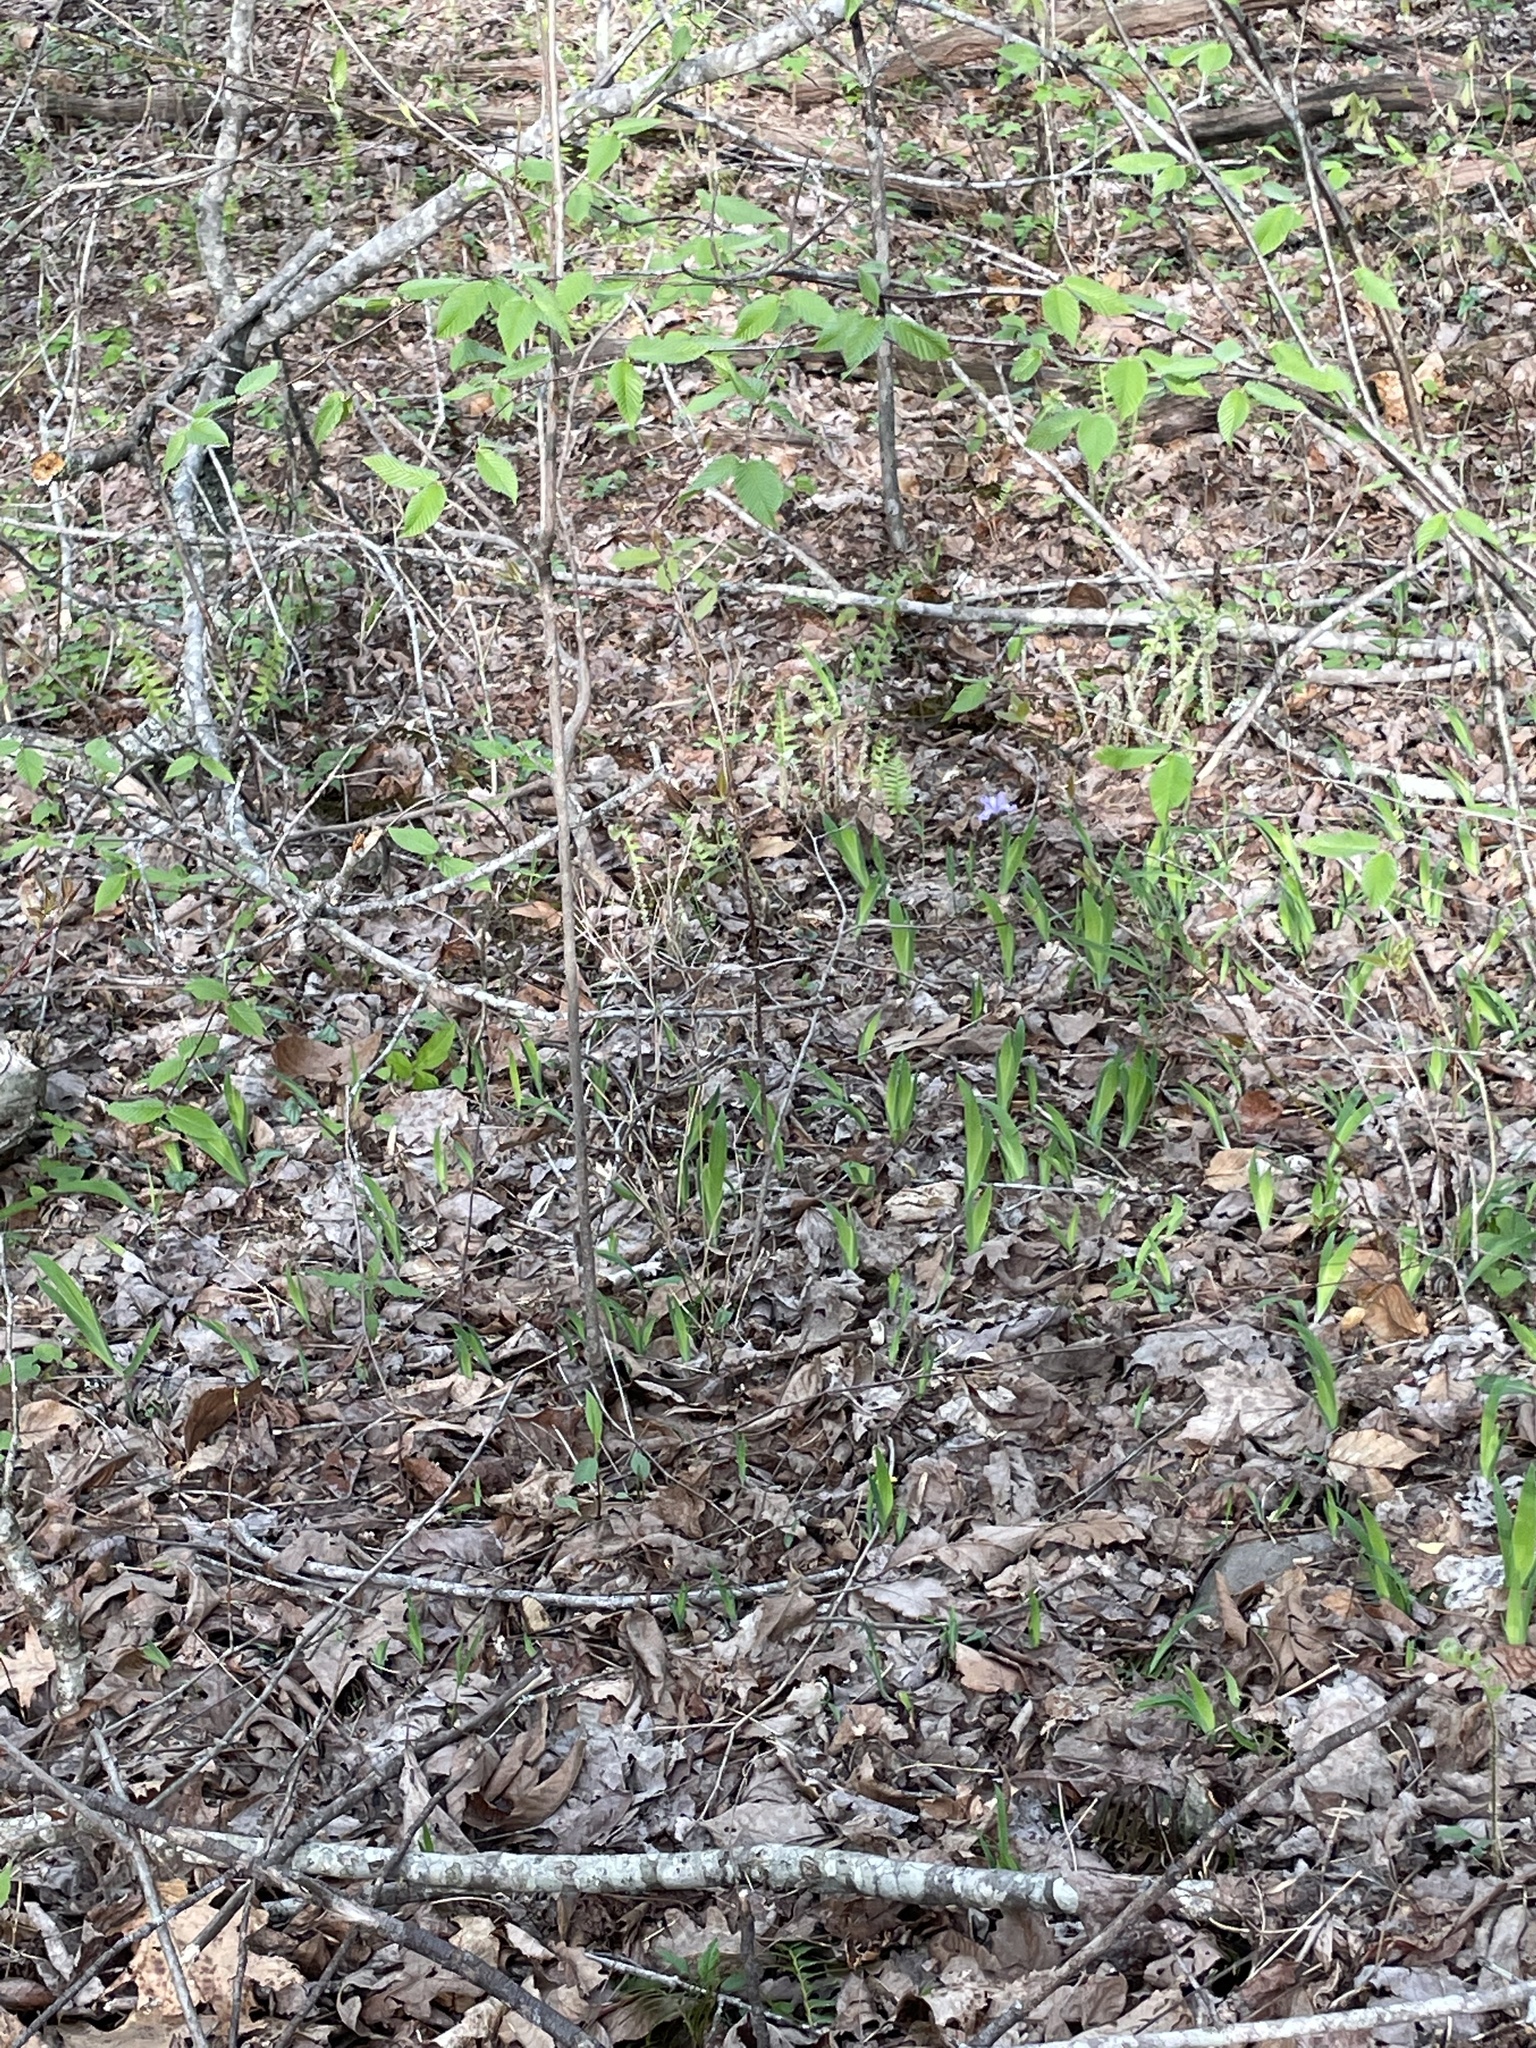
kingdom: Plantae
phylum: Tracheophyta
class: Liliopsida
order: Asparagales
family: Iridaceae
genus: Iris
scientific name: Iris cristata
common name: Crested iris
